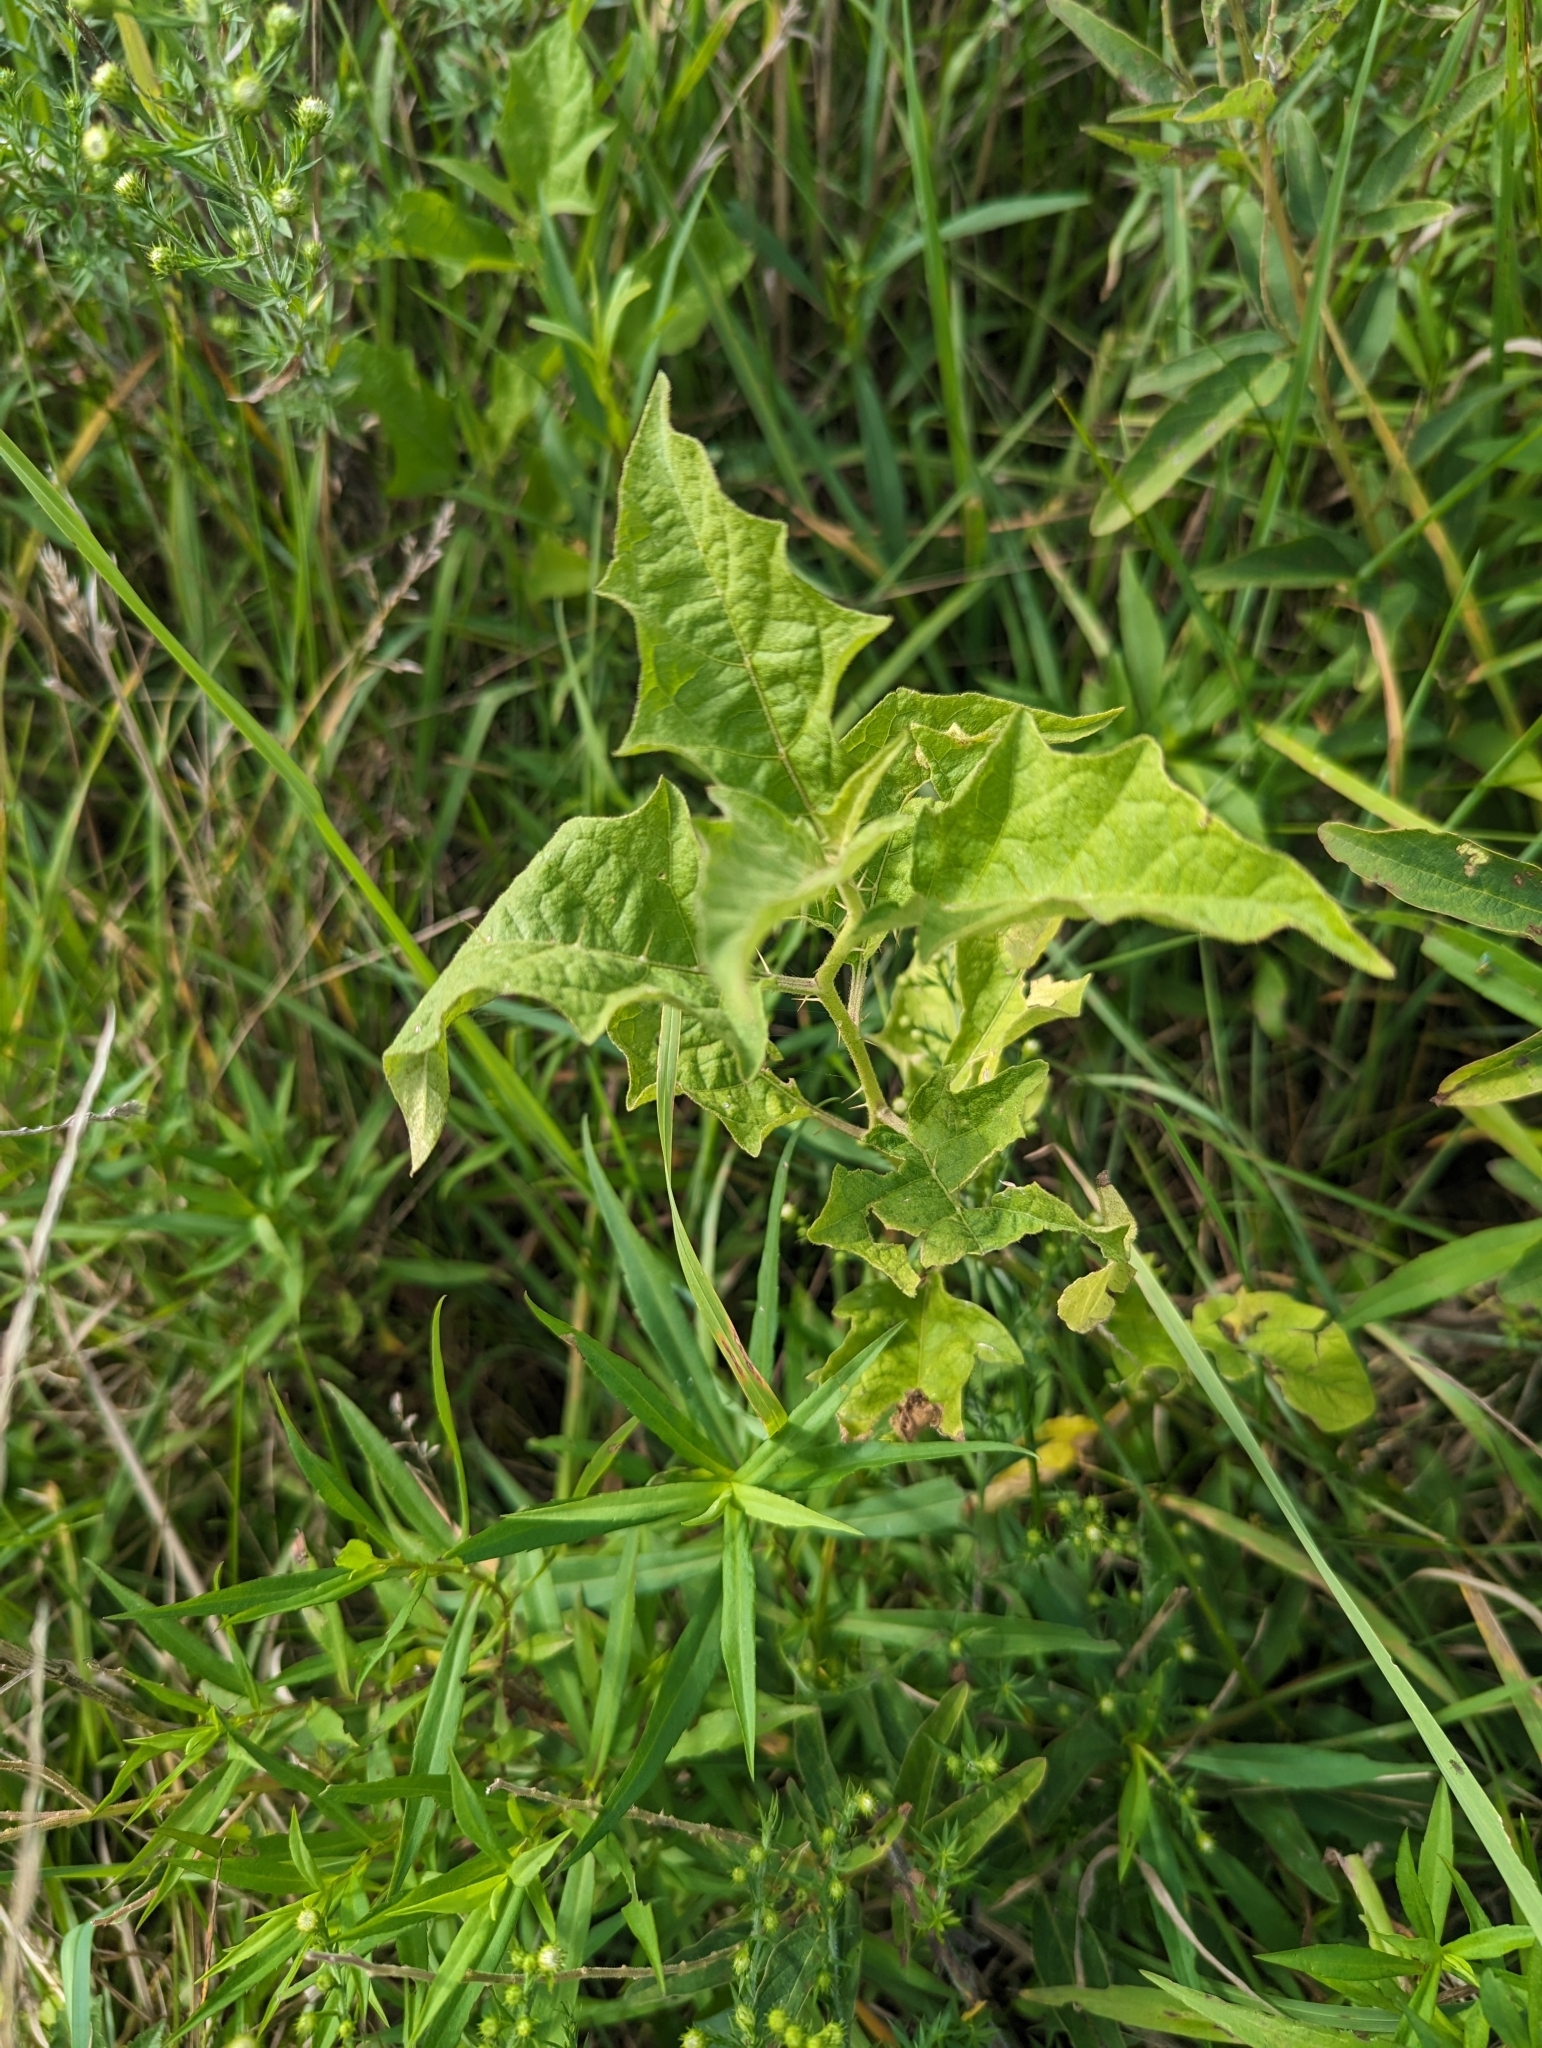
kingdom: Plantae
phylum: Tracheophyta
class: Magnoliopsida
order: Solanales
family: Solanaceae
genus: Solanum
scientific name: Solanum carolinense
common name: Horse-nettle
